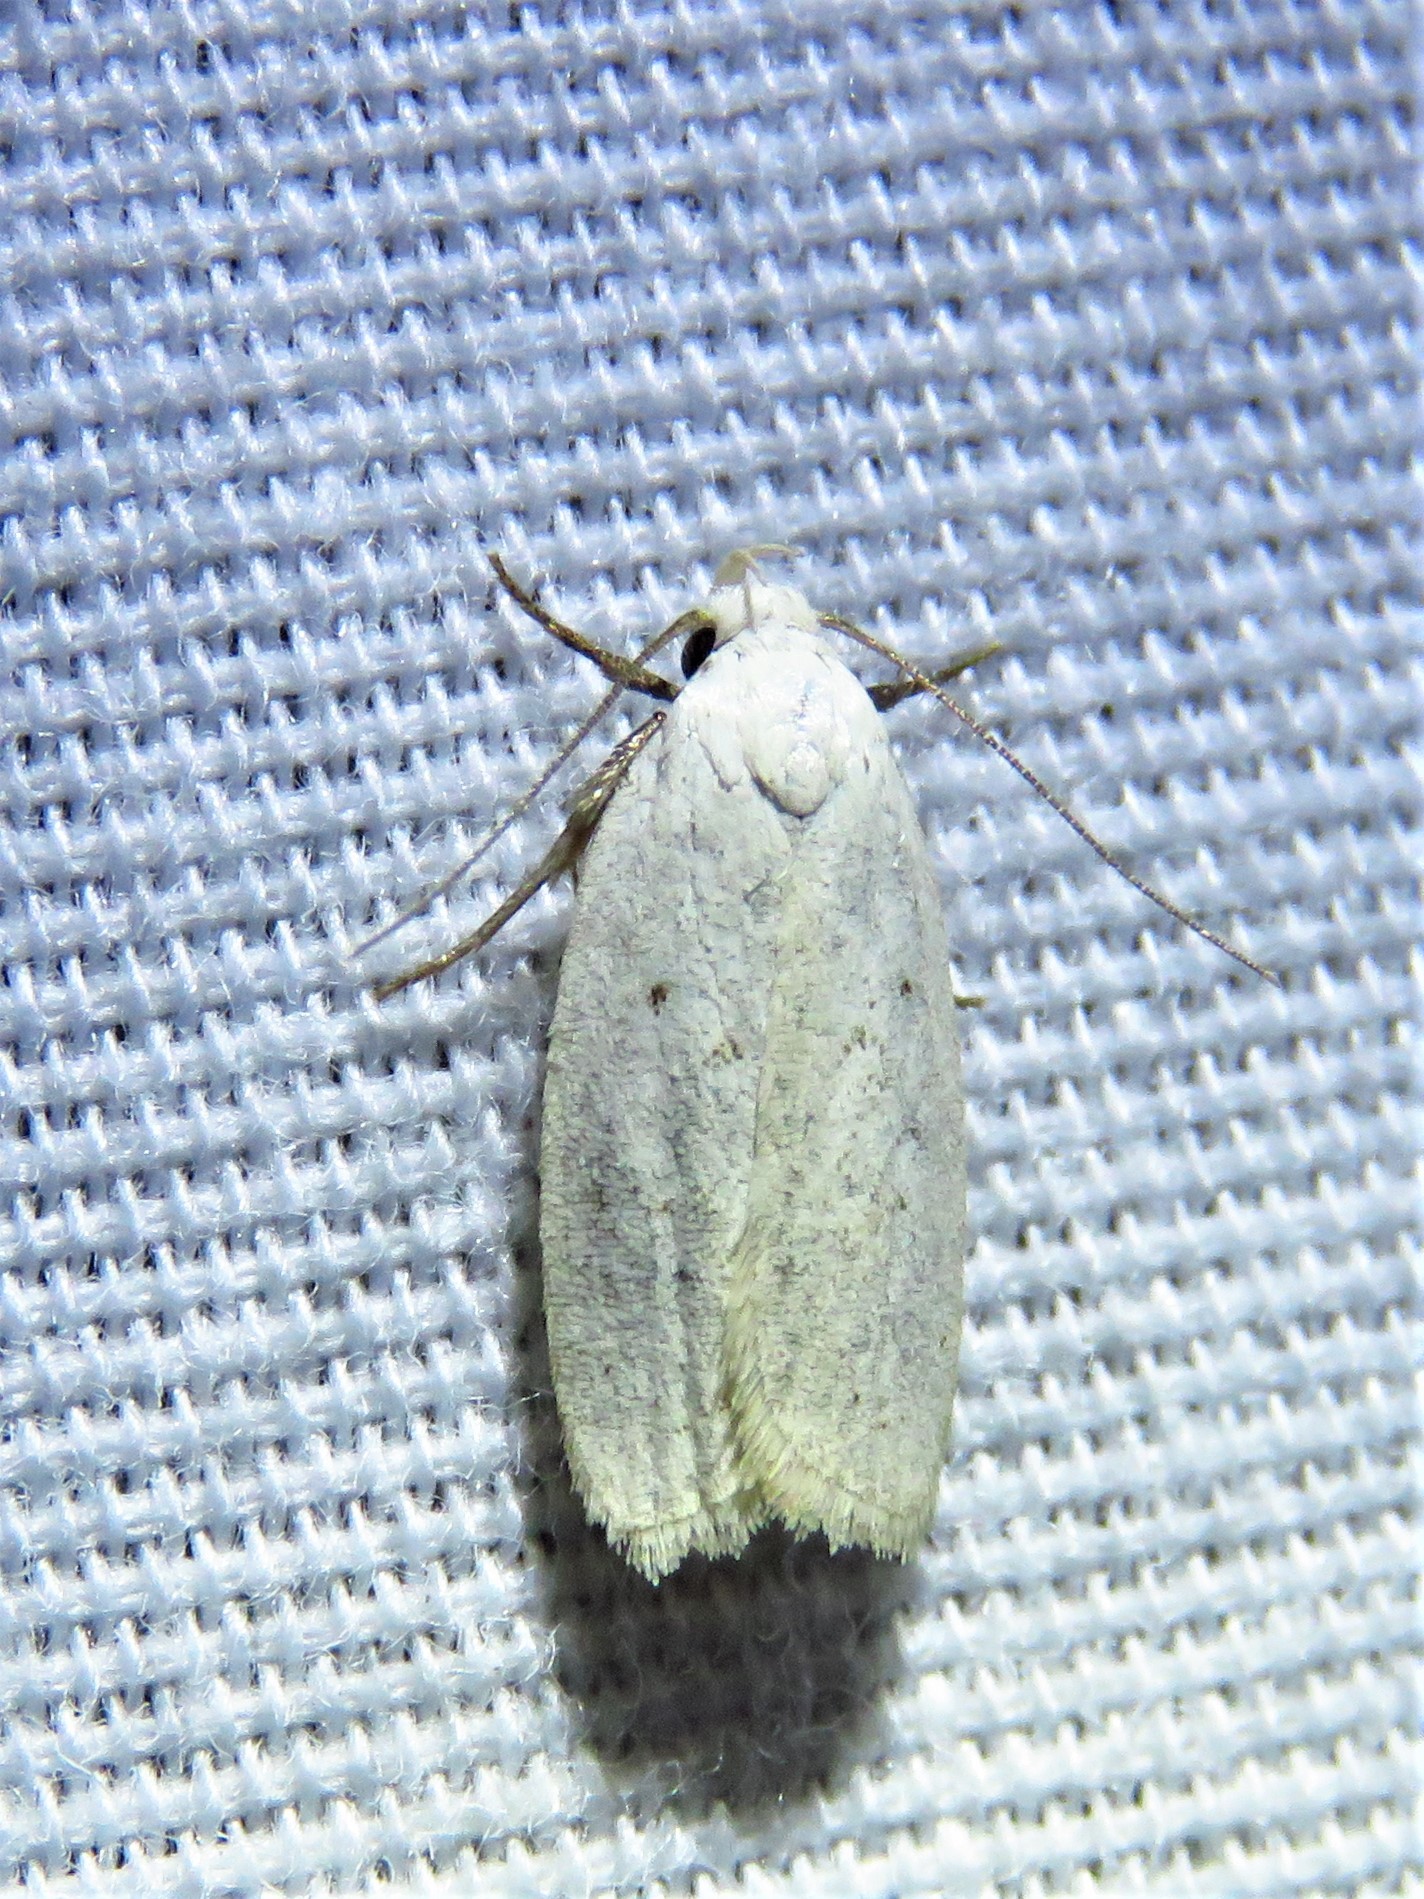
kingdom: Animalia
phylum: Arthropoda
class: Insecta
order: Lepidoptera
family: Oecophoridae
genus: Inga
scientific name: Inga cretacea
